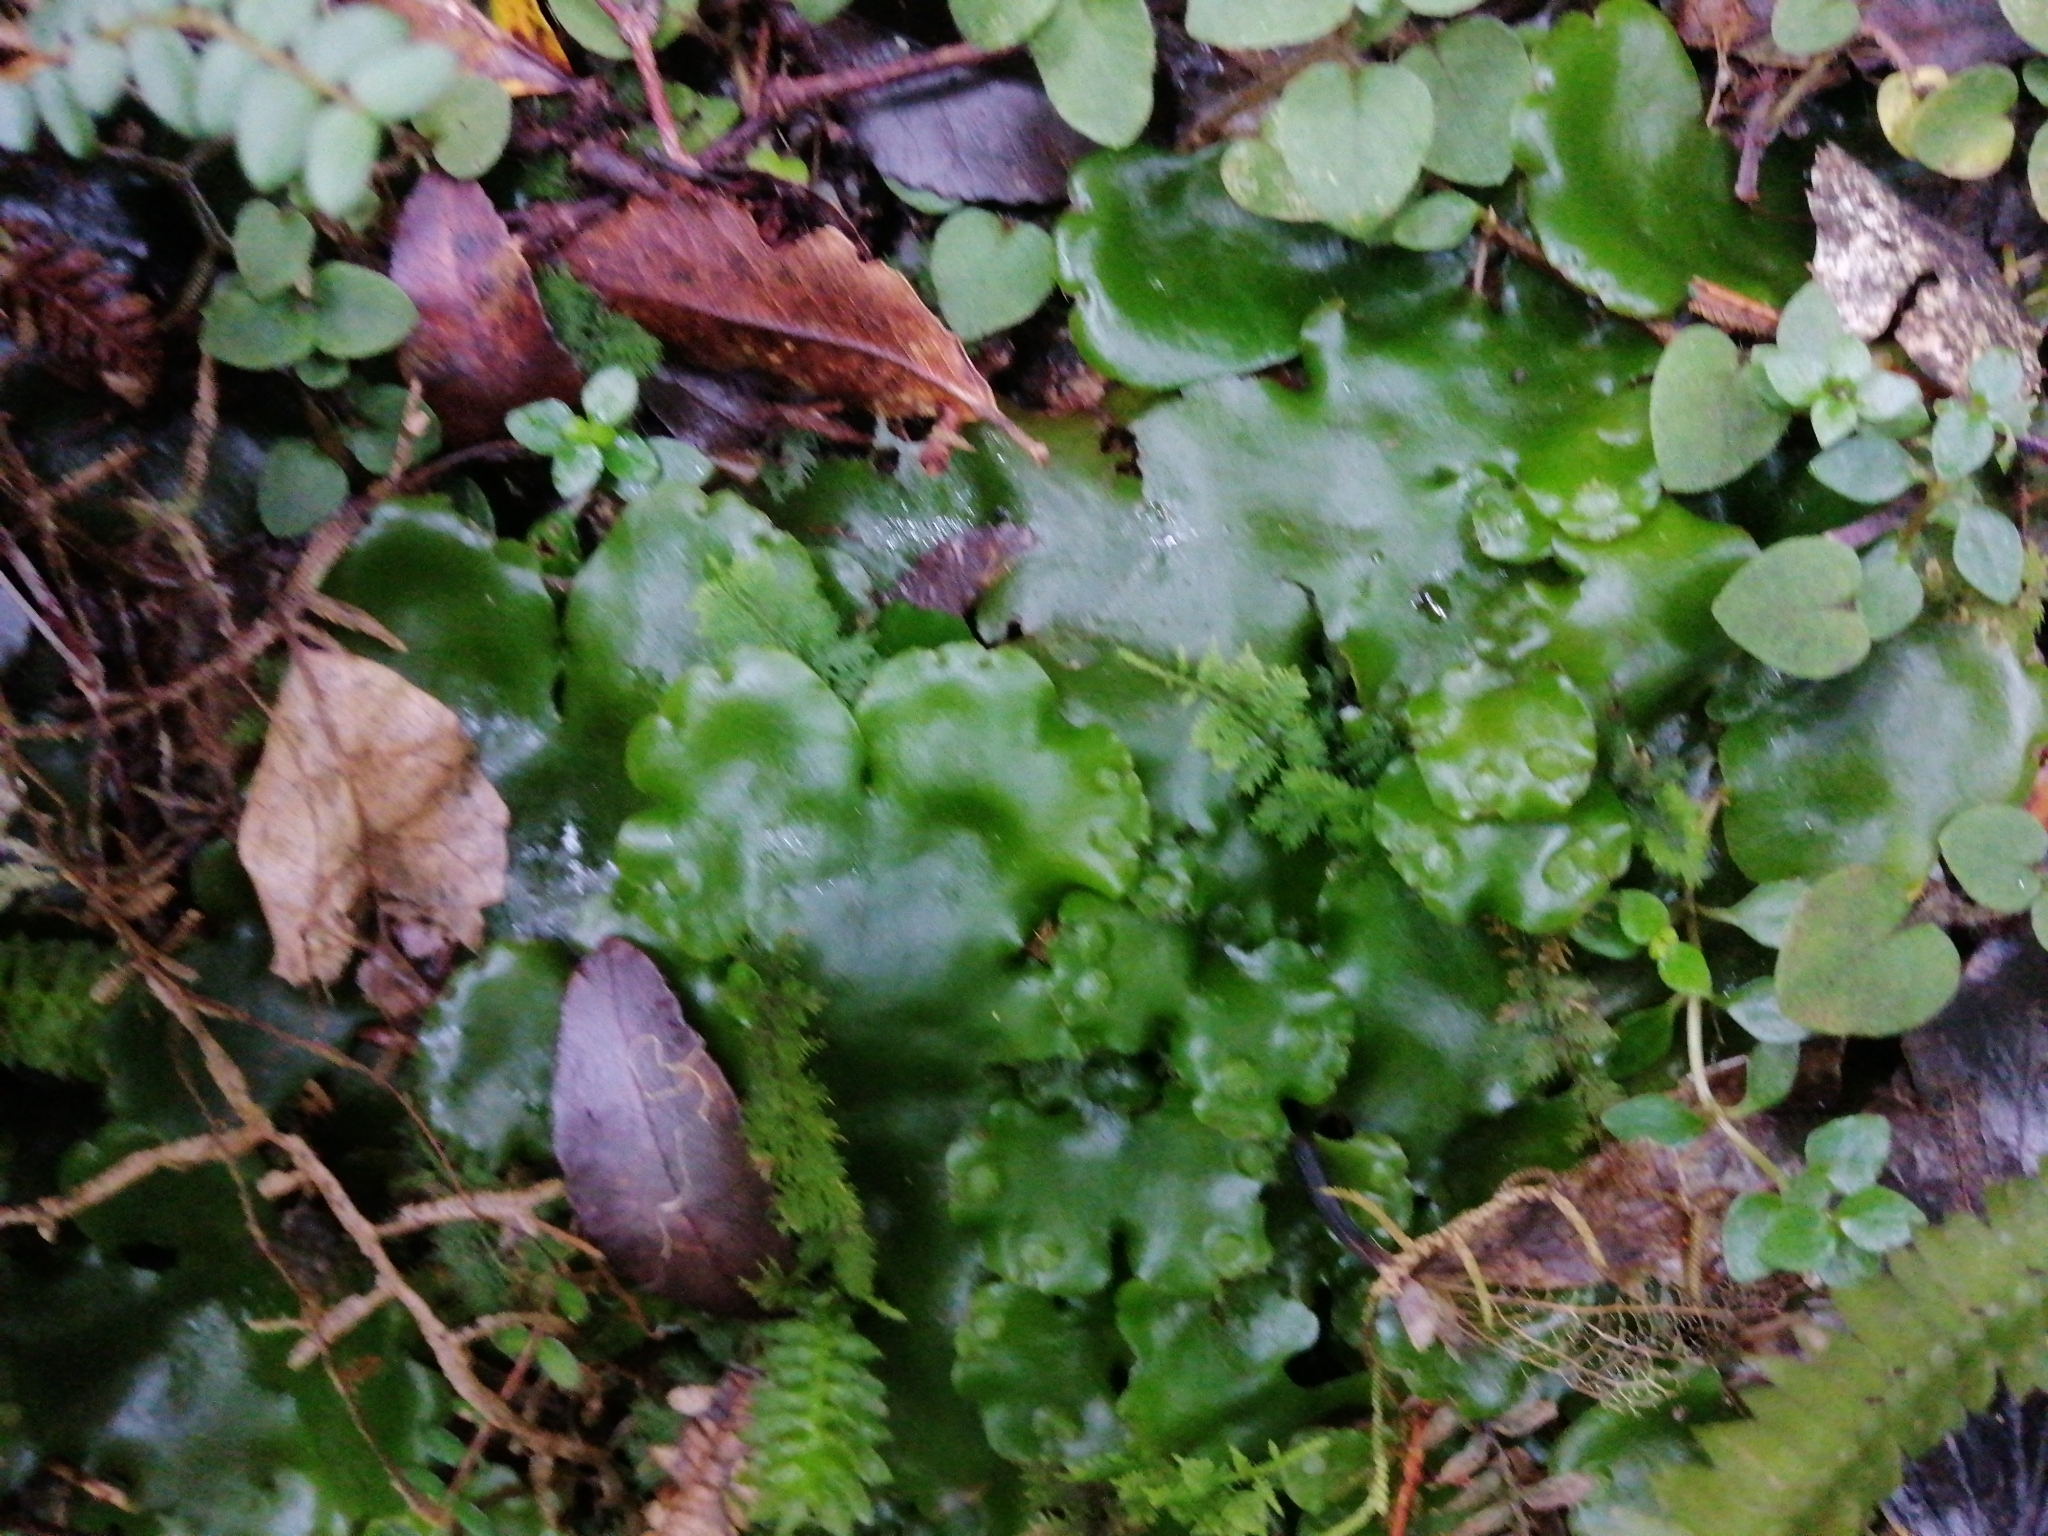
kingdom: Plantae
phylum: Marchantiophyta
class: Marchantiopsida
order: Marchantiales
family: Monocleaceae
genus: Monoclea
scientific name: Monoclea forsteri
